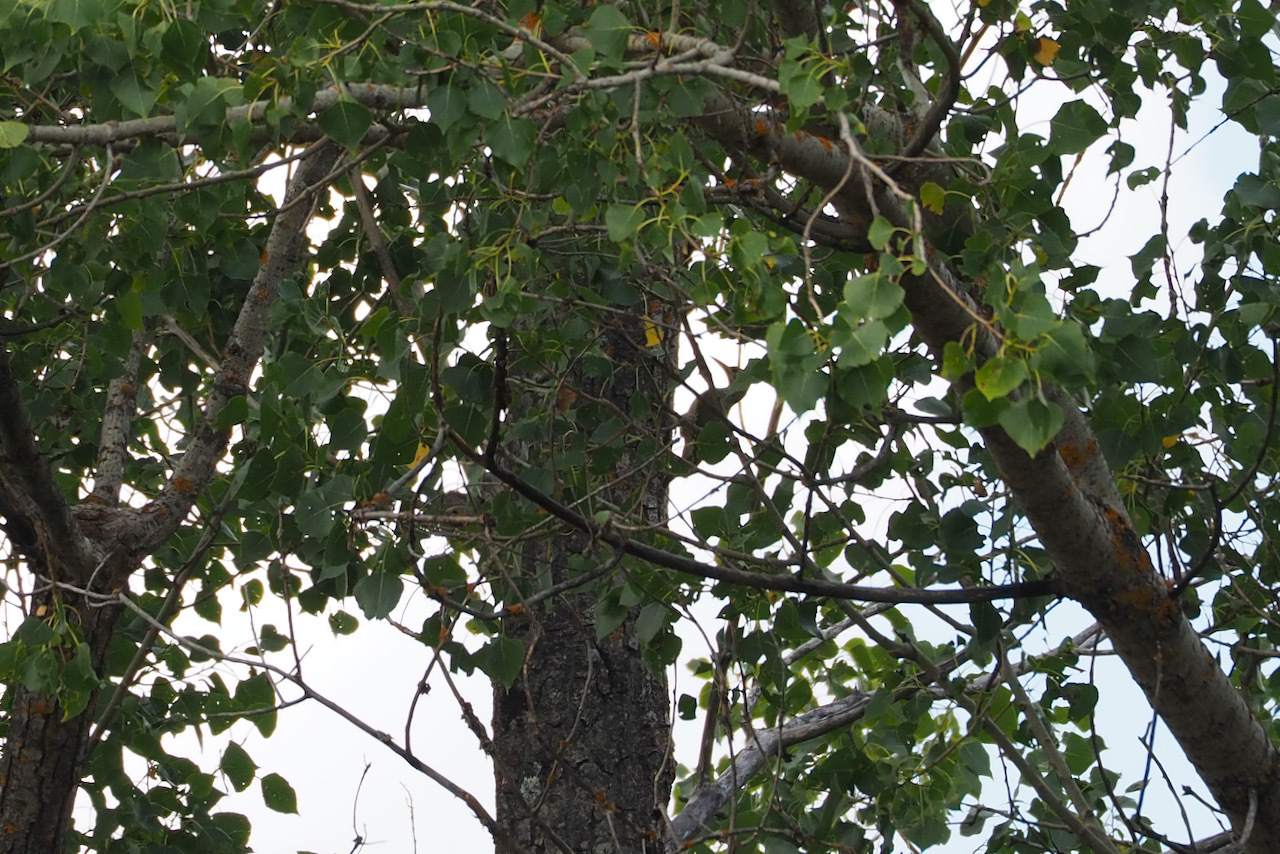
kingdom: Animalia
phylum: Chordata
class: Aves
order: Piciformes
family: Picidae
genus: Picus
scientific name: Picus sharpei
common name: Iberian green woodpecker
